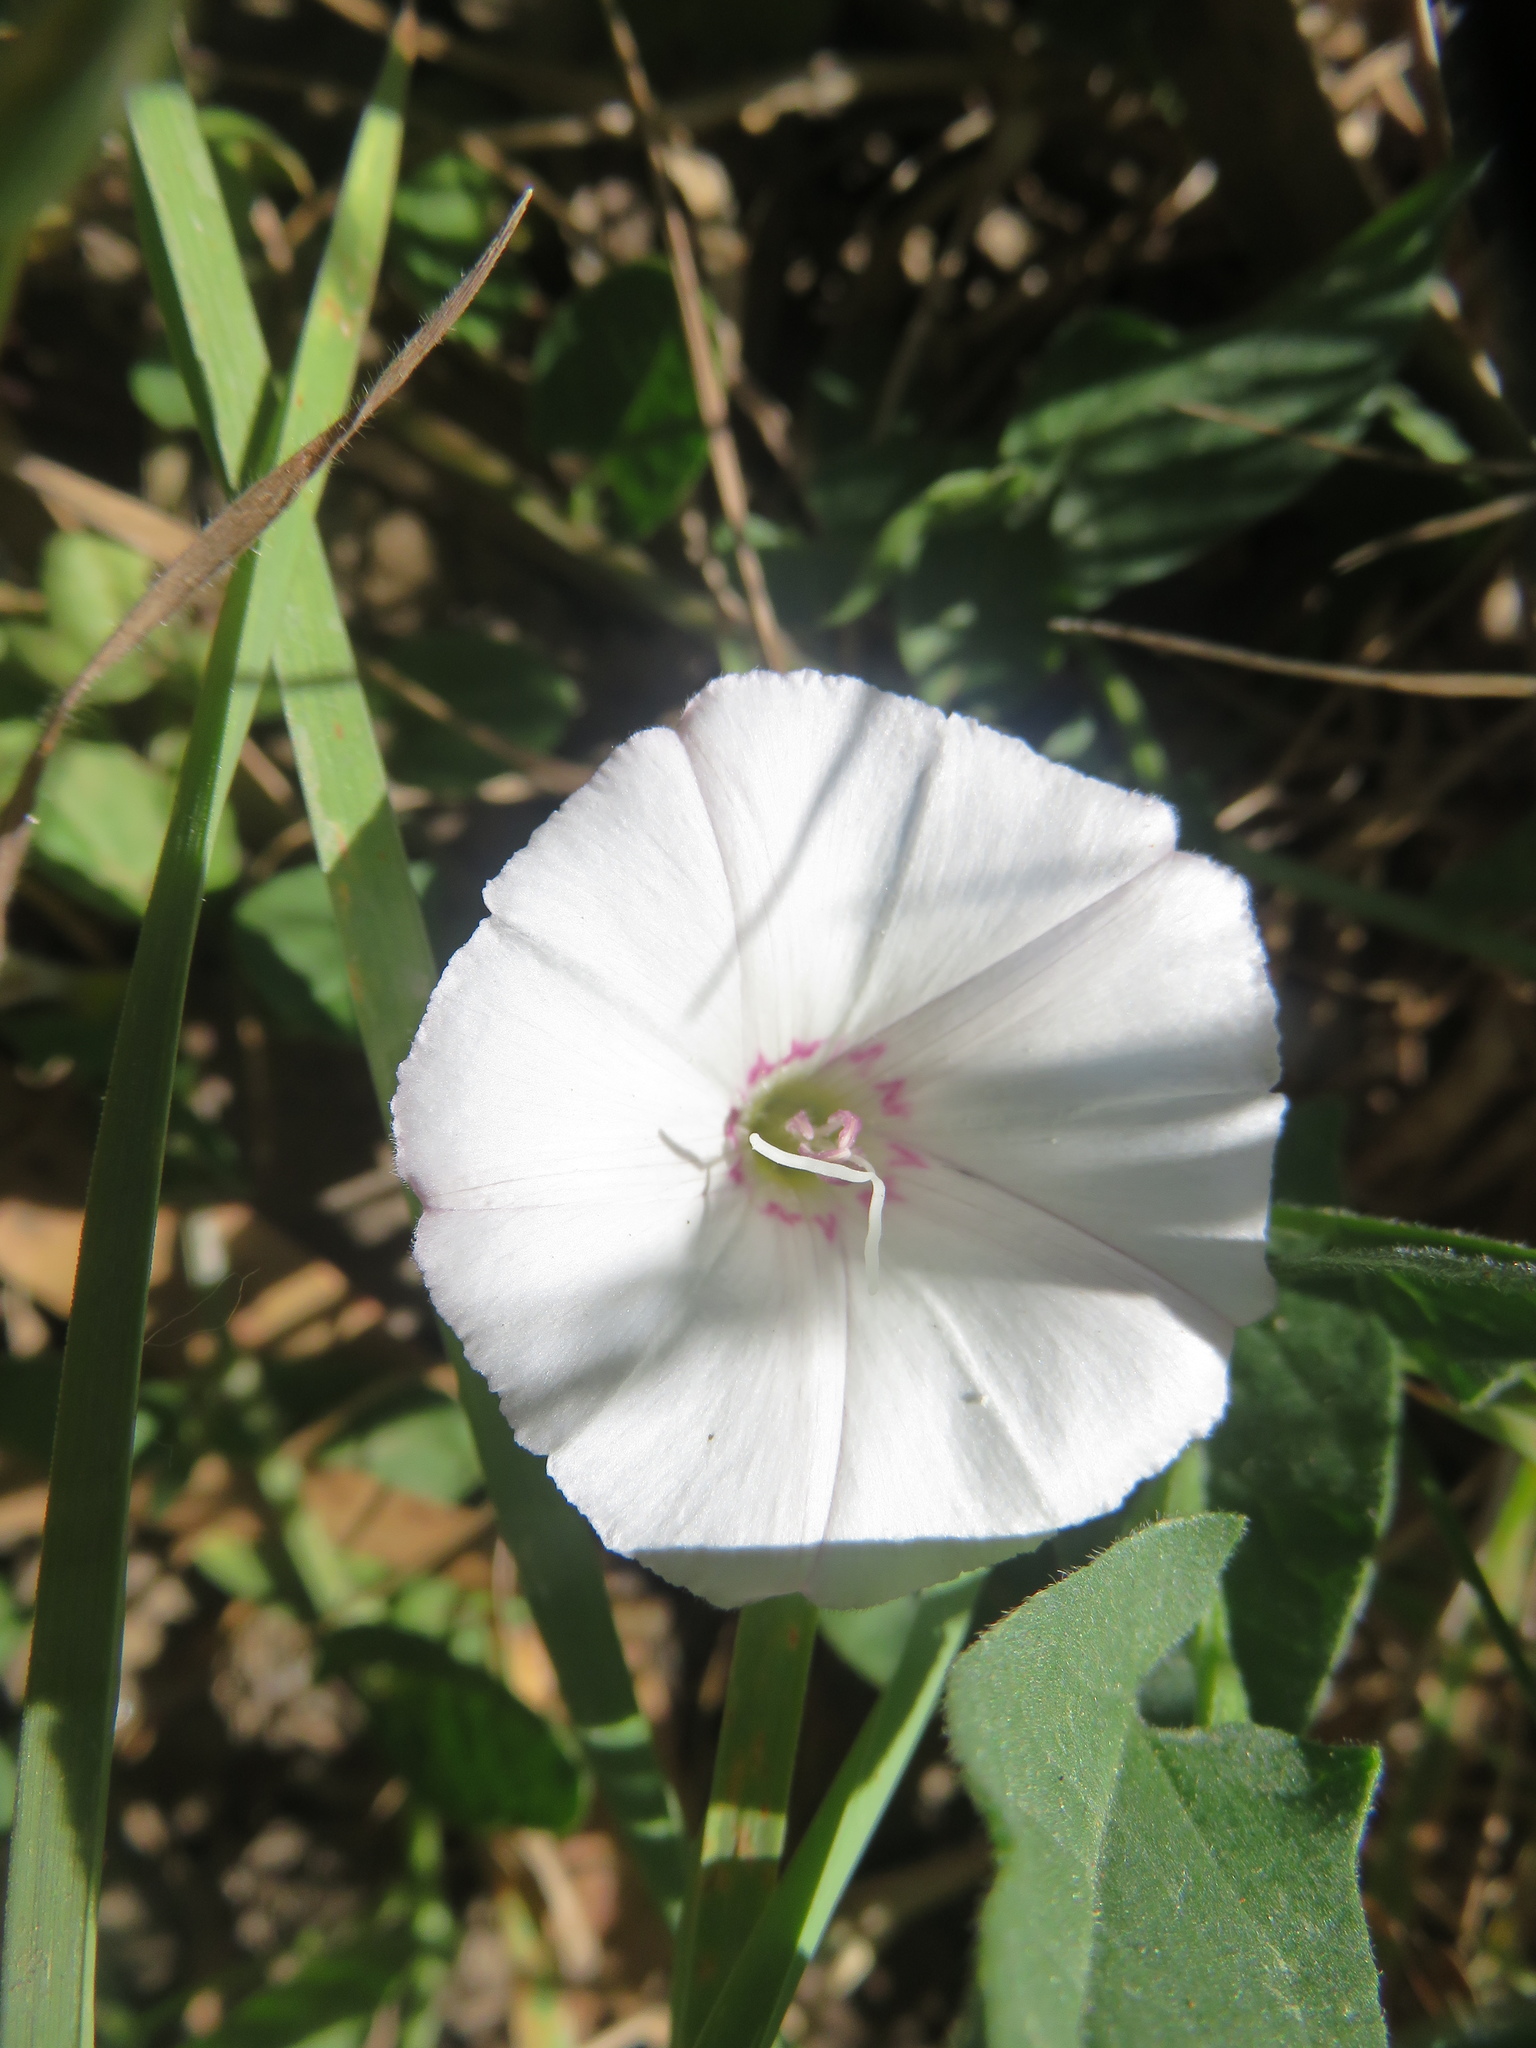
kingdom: Plantae
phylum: Tracheophyta
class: Magnoliopsida
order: Solanales
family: Convolvulaceae
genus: Convolvulus
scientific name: Convolvulus arvensis
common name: Field bindweed
